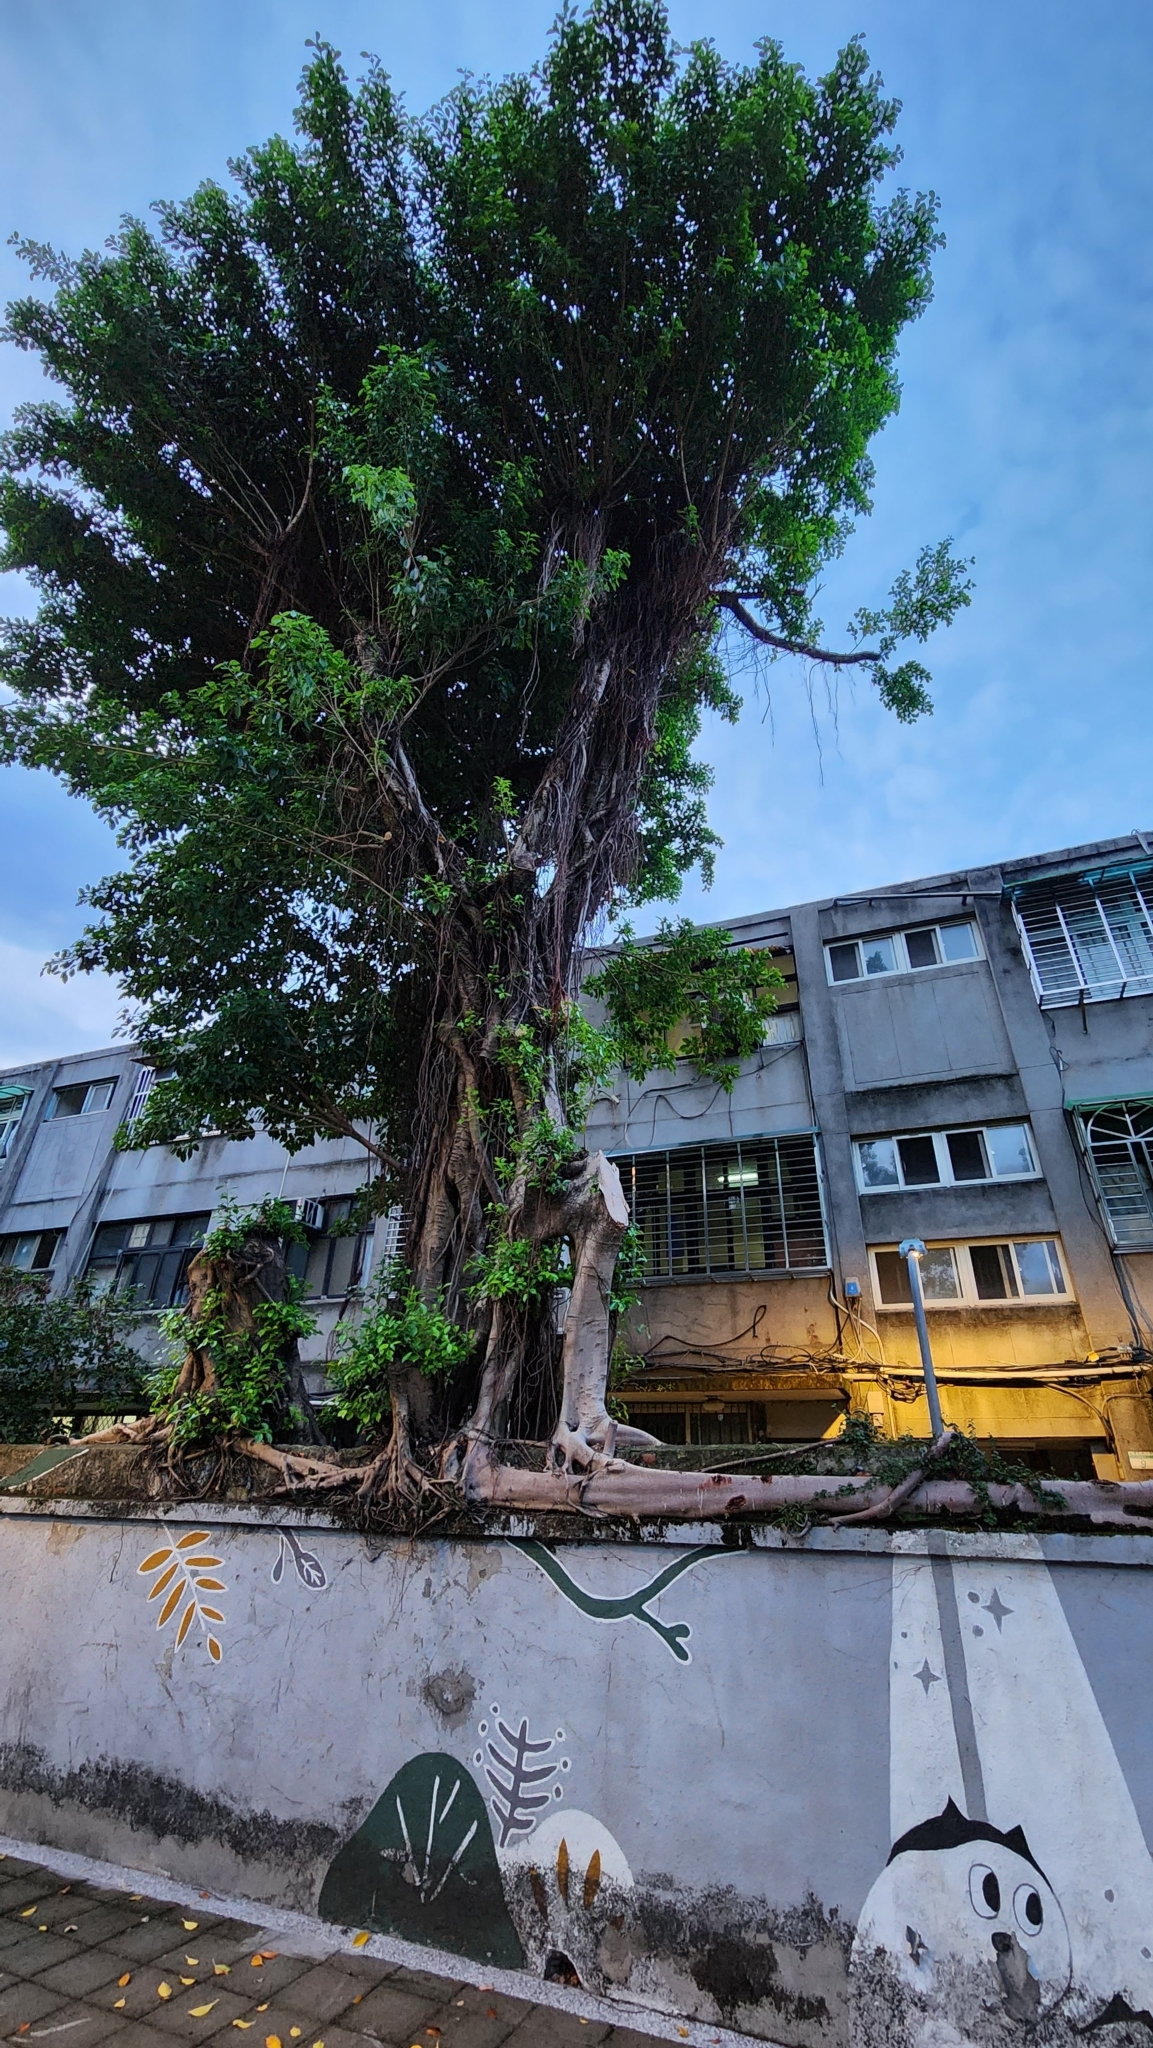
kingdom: Plantae
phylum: Tracheophyta
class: Magnoliopsida
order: Rosales
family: Moraceae
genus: Ficus
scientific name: Ficus microcarpa
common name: Chinese banyan
